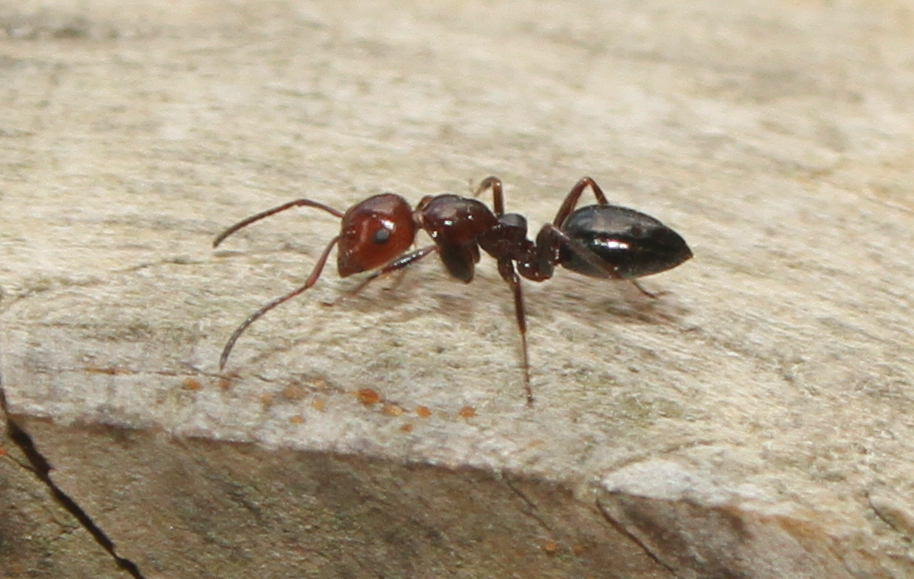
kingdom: Animalia
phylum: Arthropoda
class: Insecta
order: Hymenoptera
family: Formicidae
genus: Camponotus
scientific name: Camponotus lateralis
